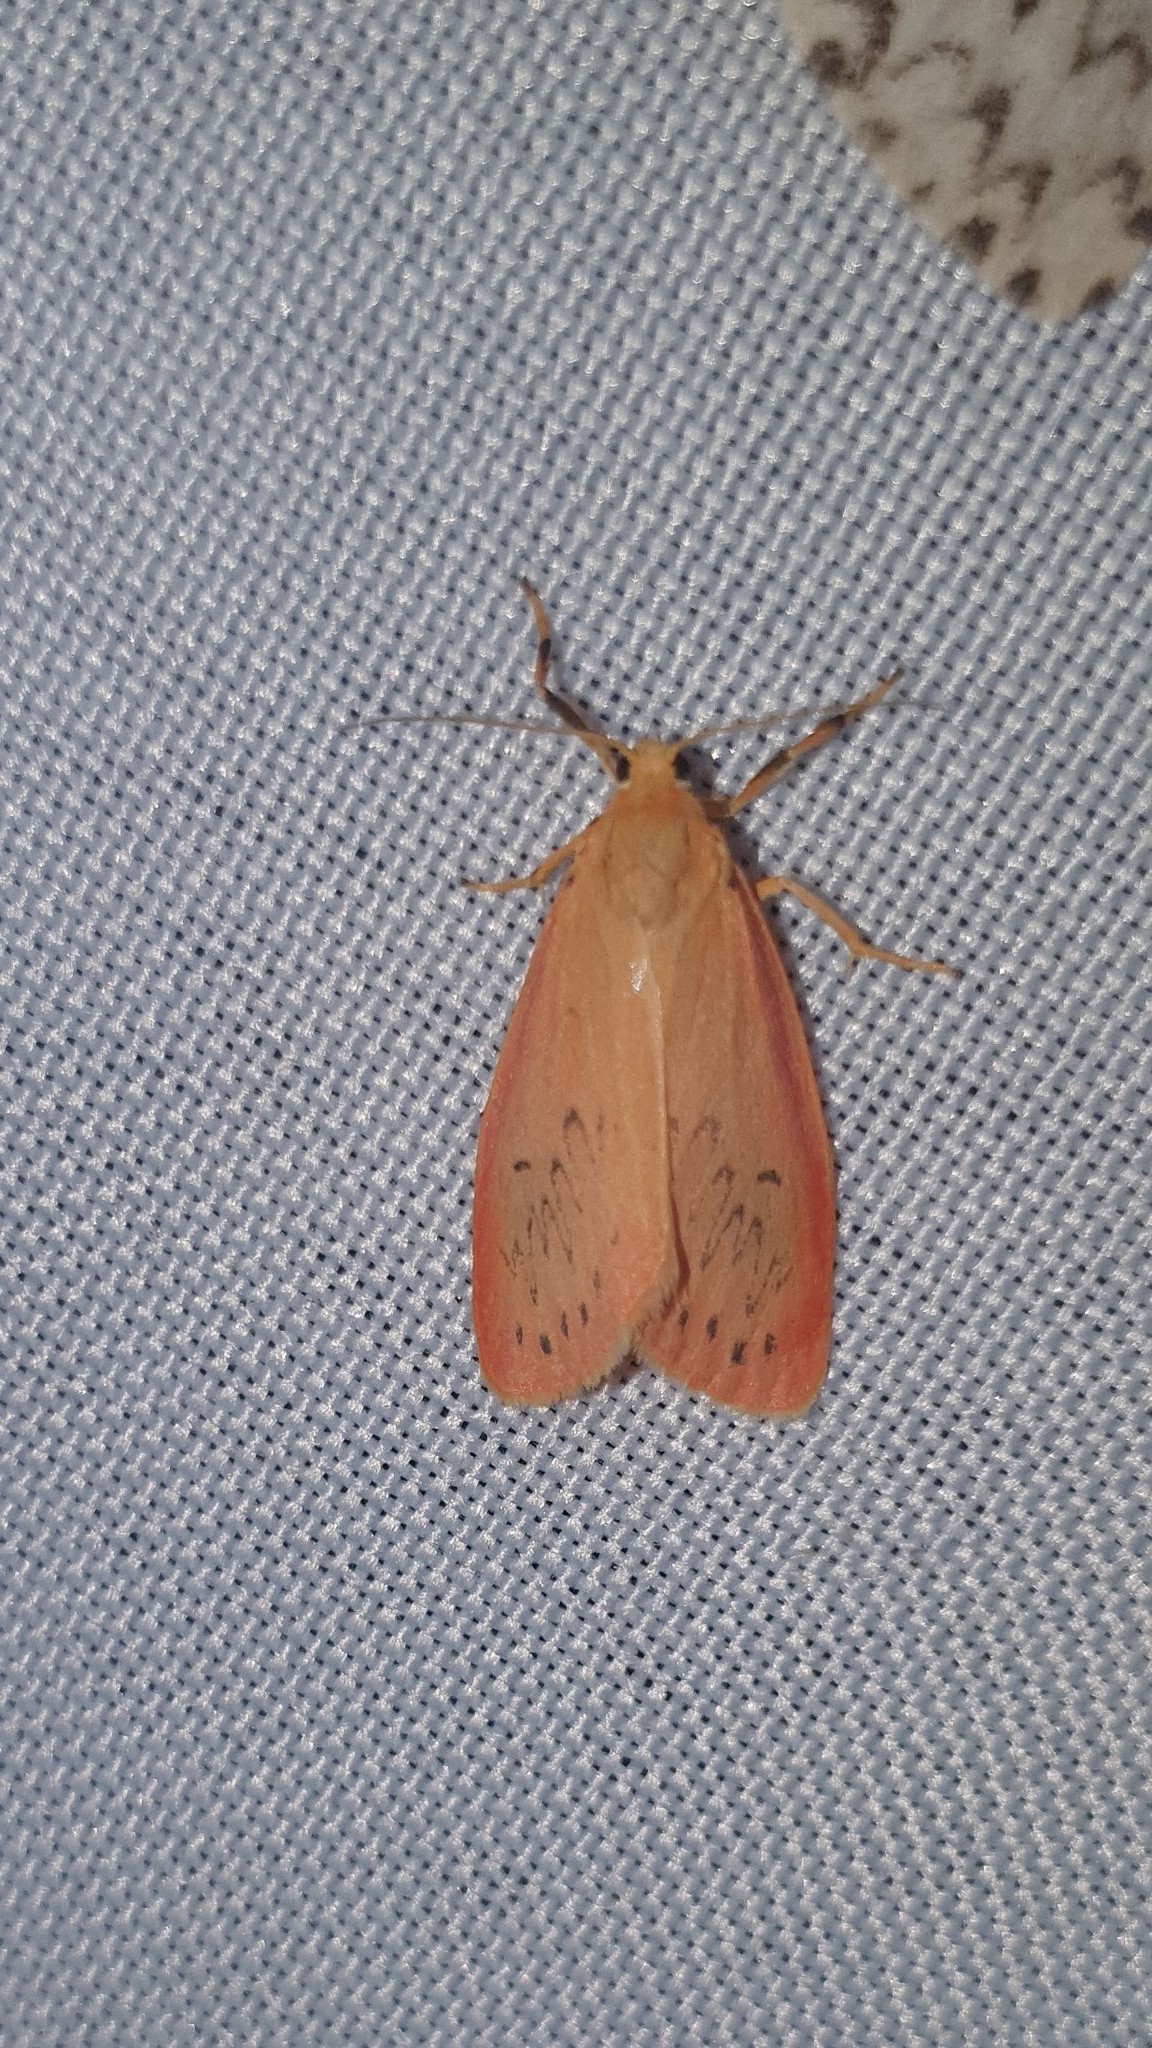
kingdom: Animalia
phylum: Arthropoda
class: Insecta
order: Lepidoptera
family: Erebidae
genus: Miltochrista
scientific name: Miltochrista miniata
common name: Rosy footman
